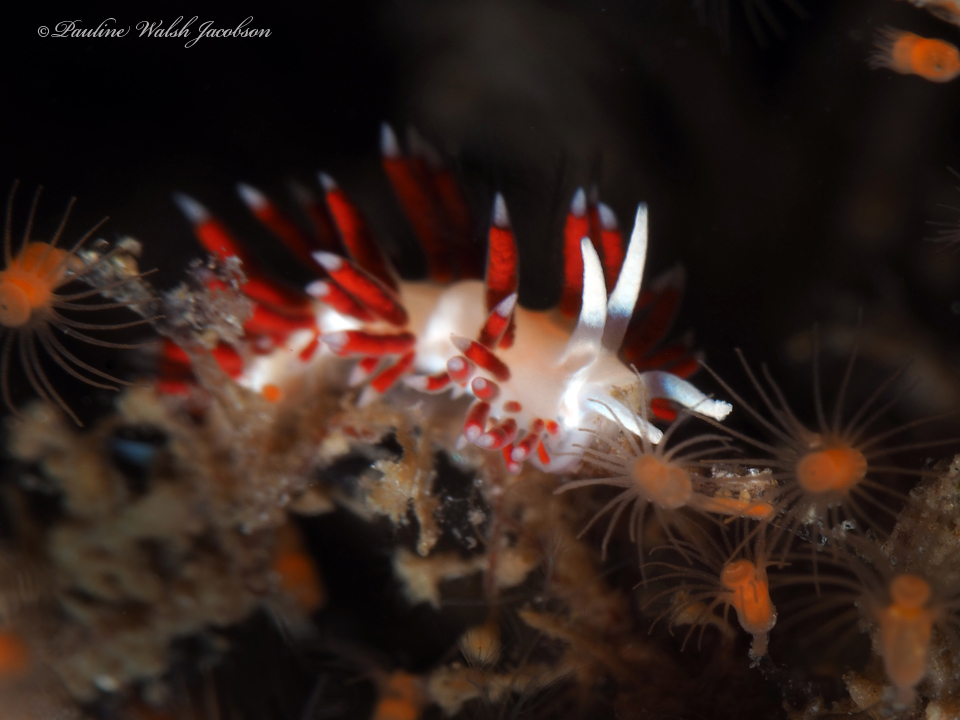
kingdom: Animalia
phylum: Mollusca
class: Gastropoda
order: Nudibranchia
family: Flabellinidae
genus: Flabellina
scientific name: Flabellina dushia
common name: Dushia flabellina
